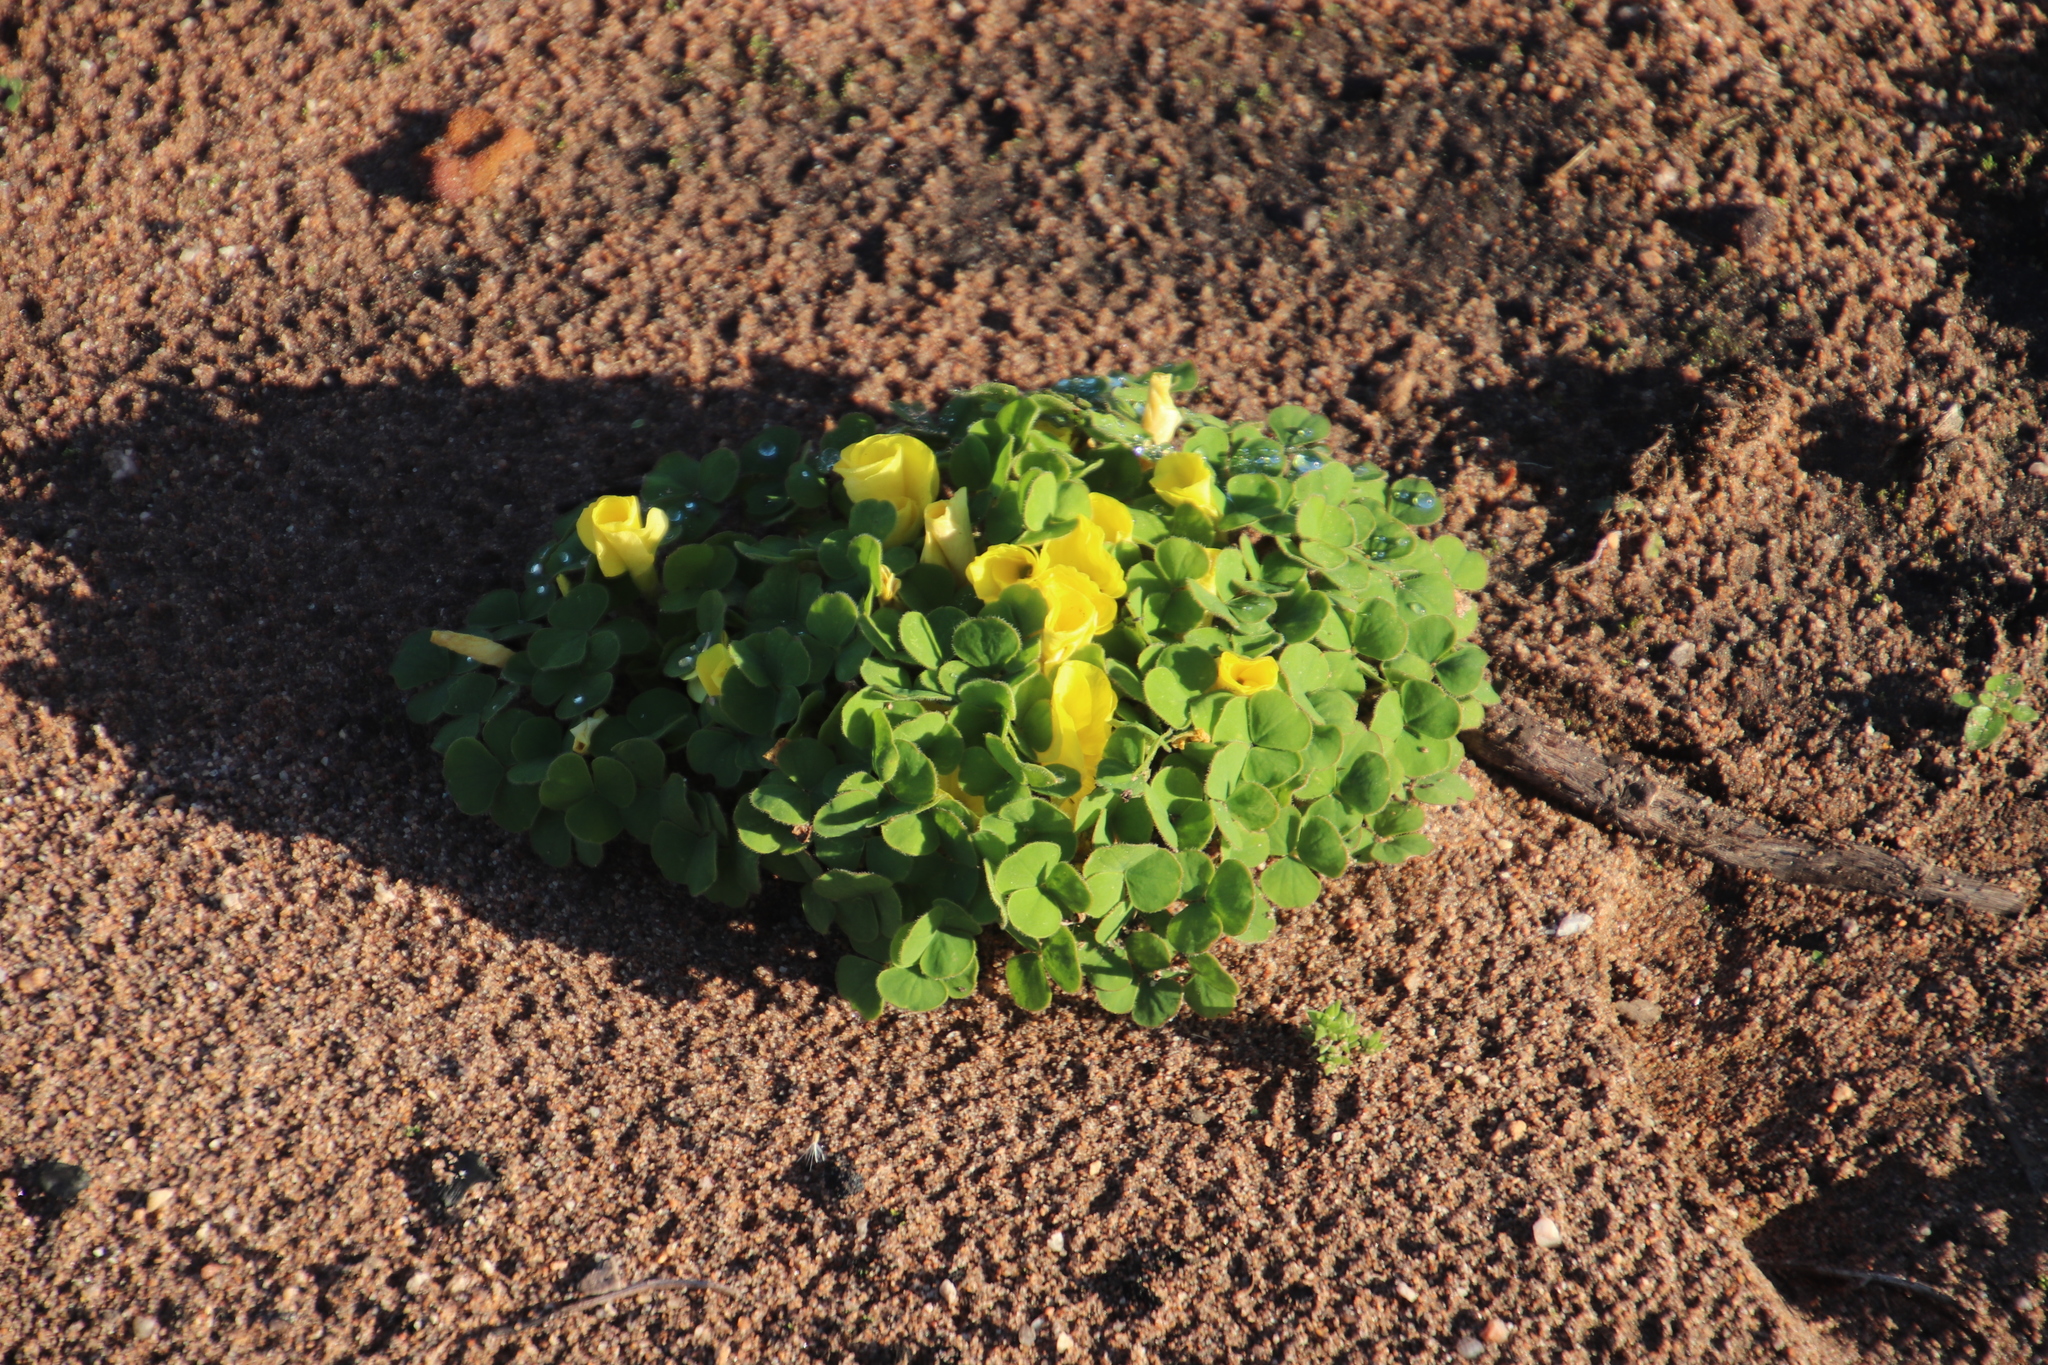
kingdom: Plantae
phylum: Tracheophyta
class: Magnoliopsida
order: Oxalidales
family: Oxalidaceae
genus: Oxalis
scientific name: Oxalis luteola
